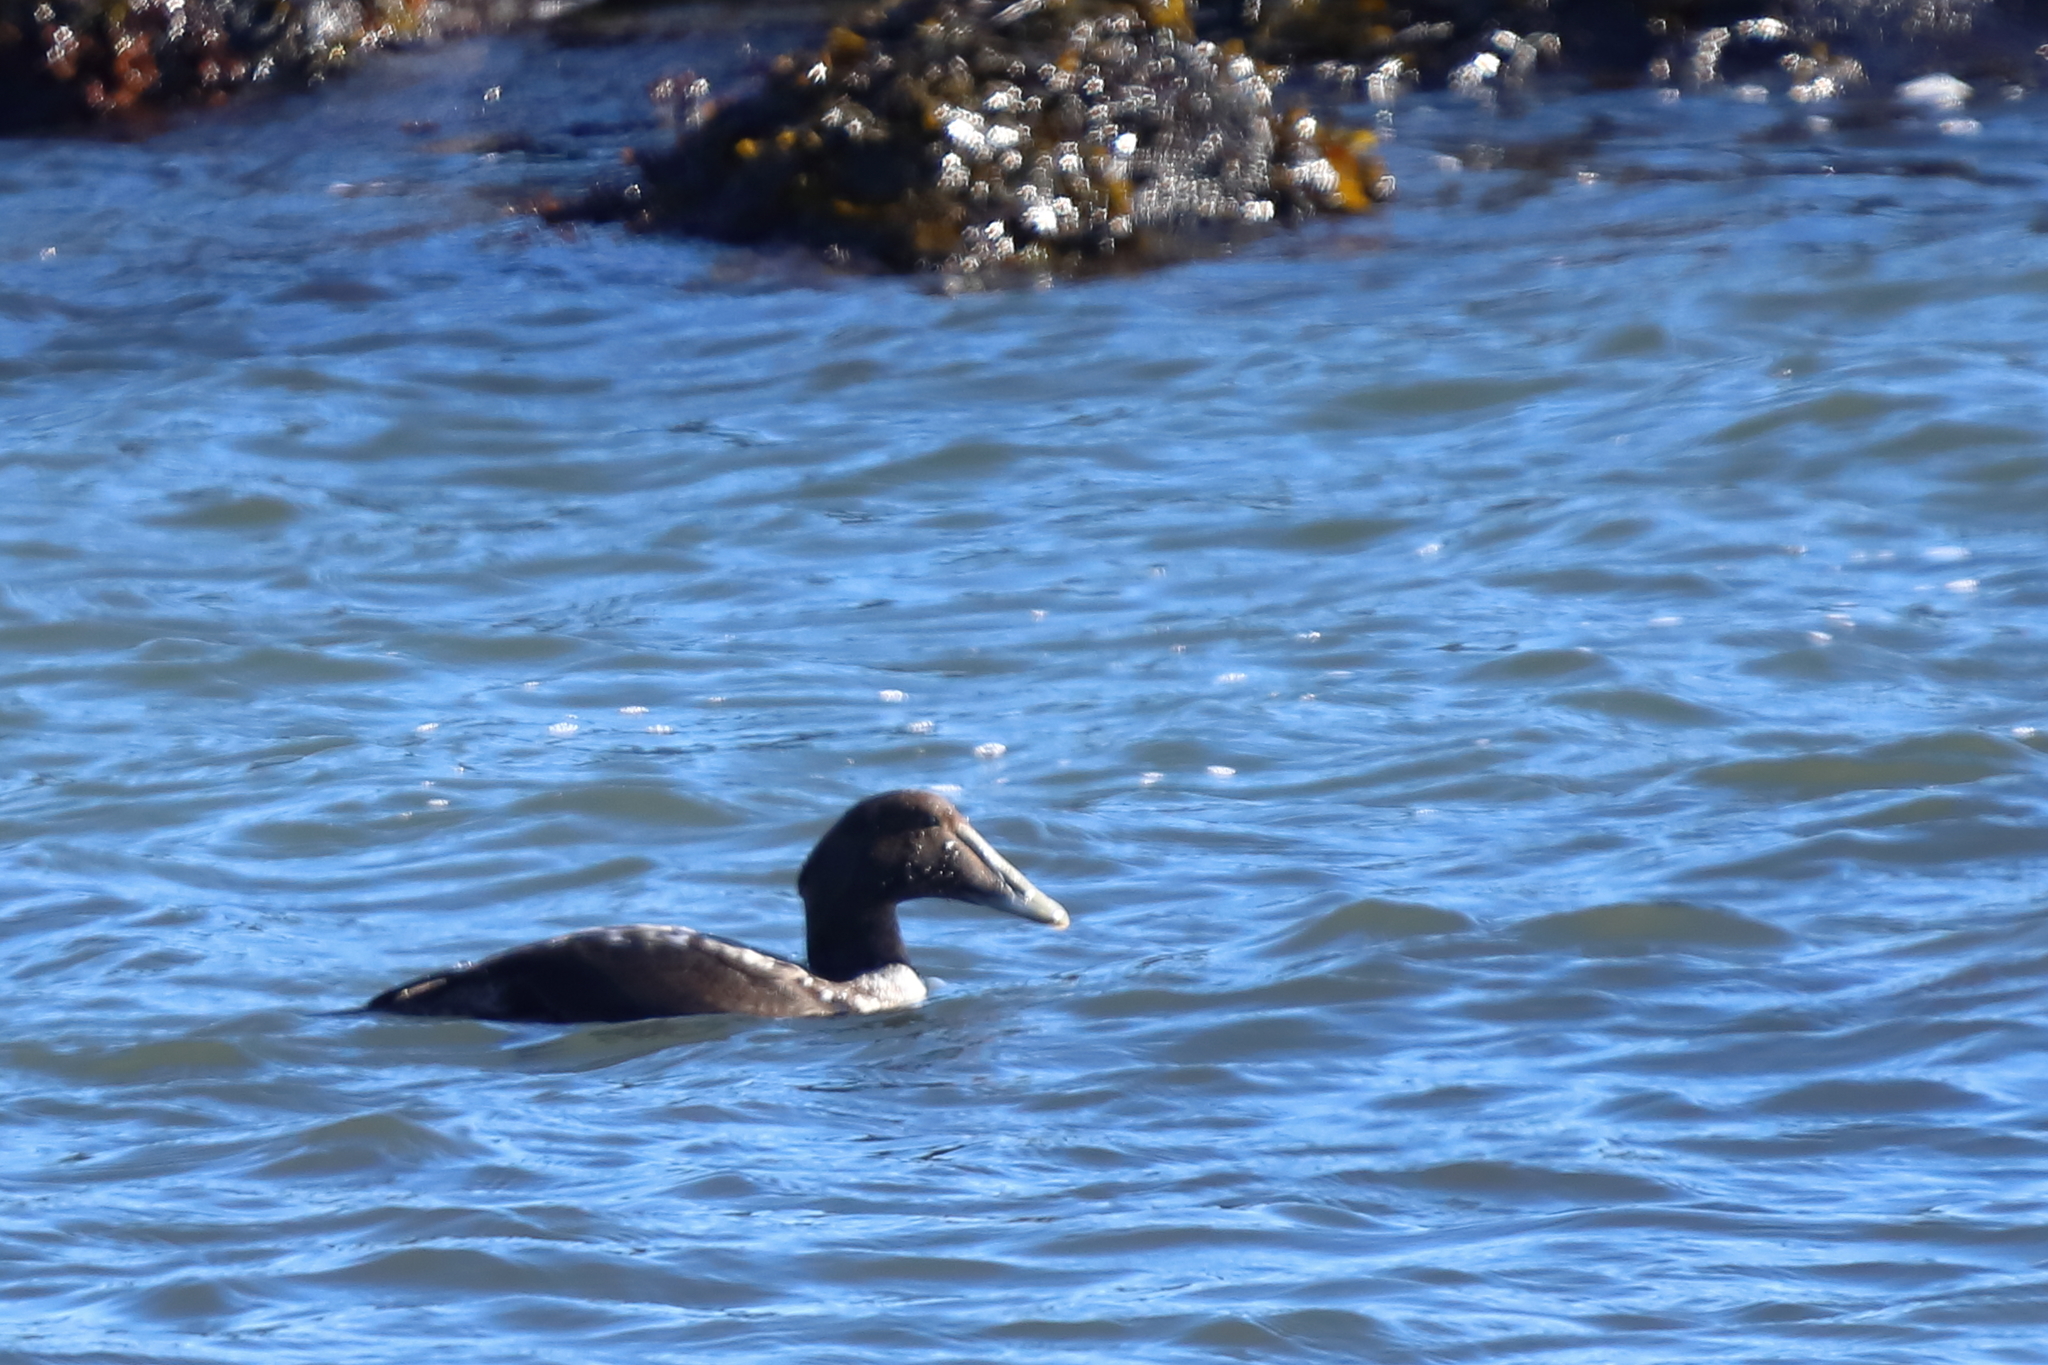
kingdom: Animalia
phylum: Chordata
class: Aves
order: Anseriformes
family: Anatidae
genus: Somateria
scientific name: Somateria mollissima
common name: Common eider
